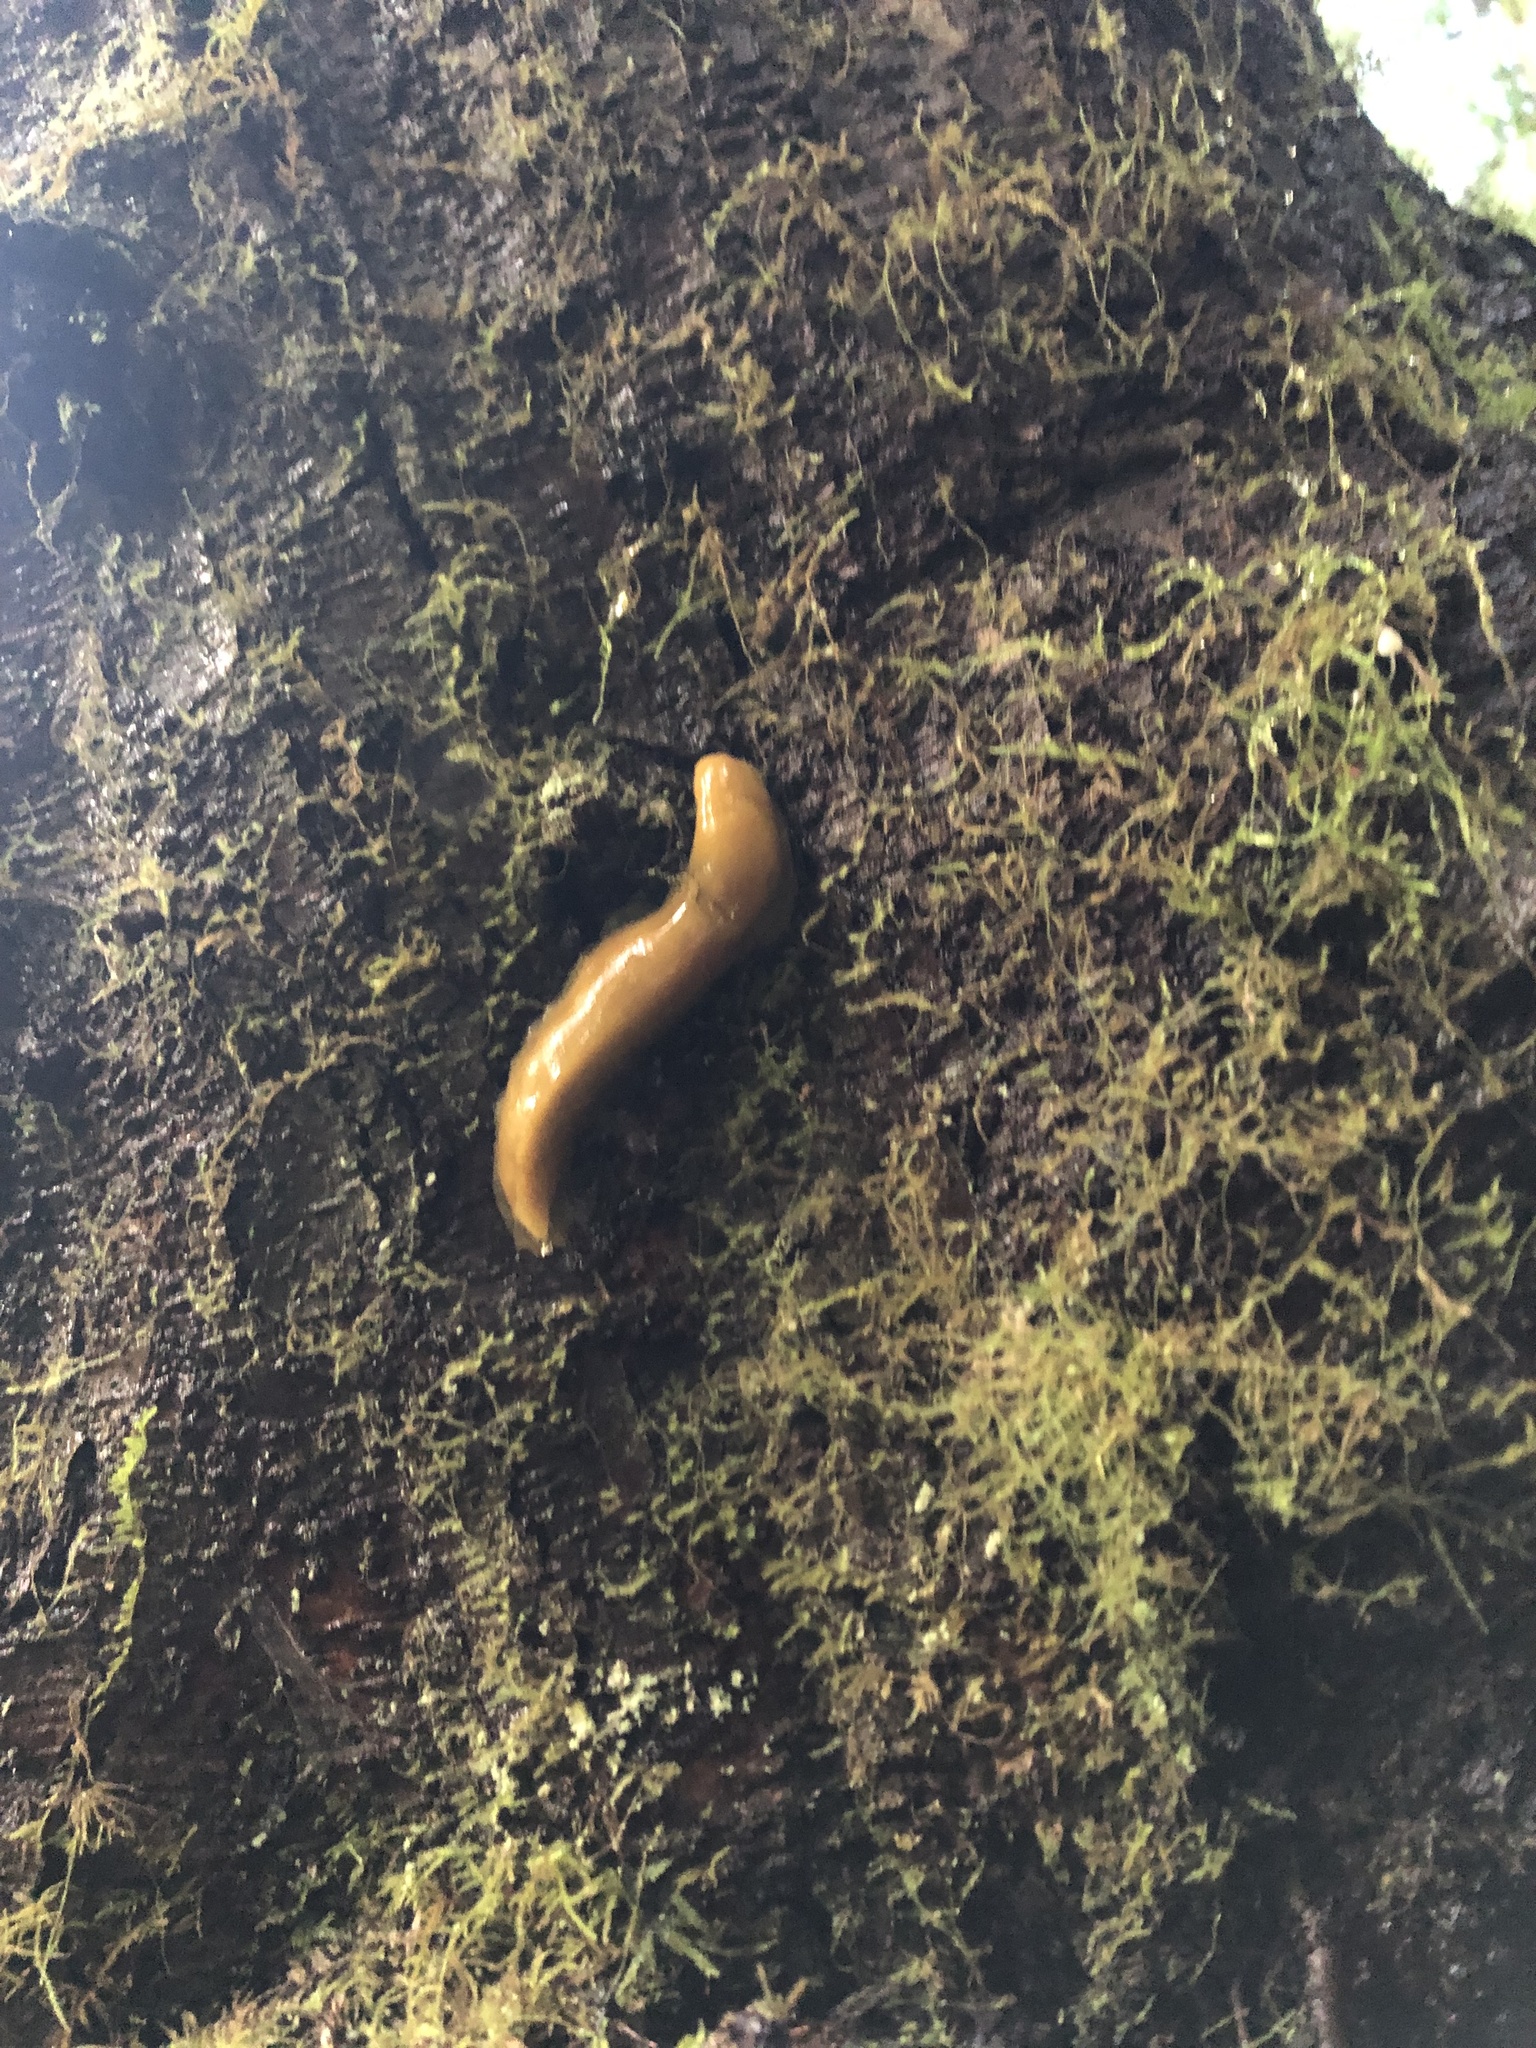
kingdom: Animalia
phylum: Mollusca
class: Gastropoda
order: Stylommatophora
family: Ariolimacidae
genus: Ariolimax
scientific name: Ariolimax columbianus
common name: Pacific banana slug
